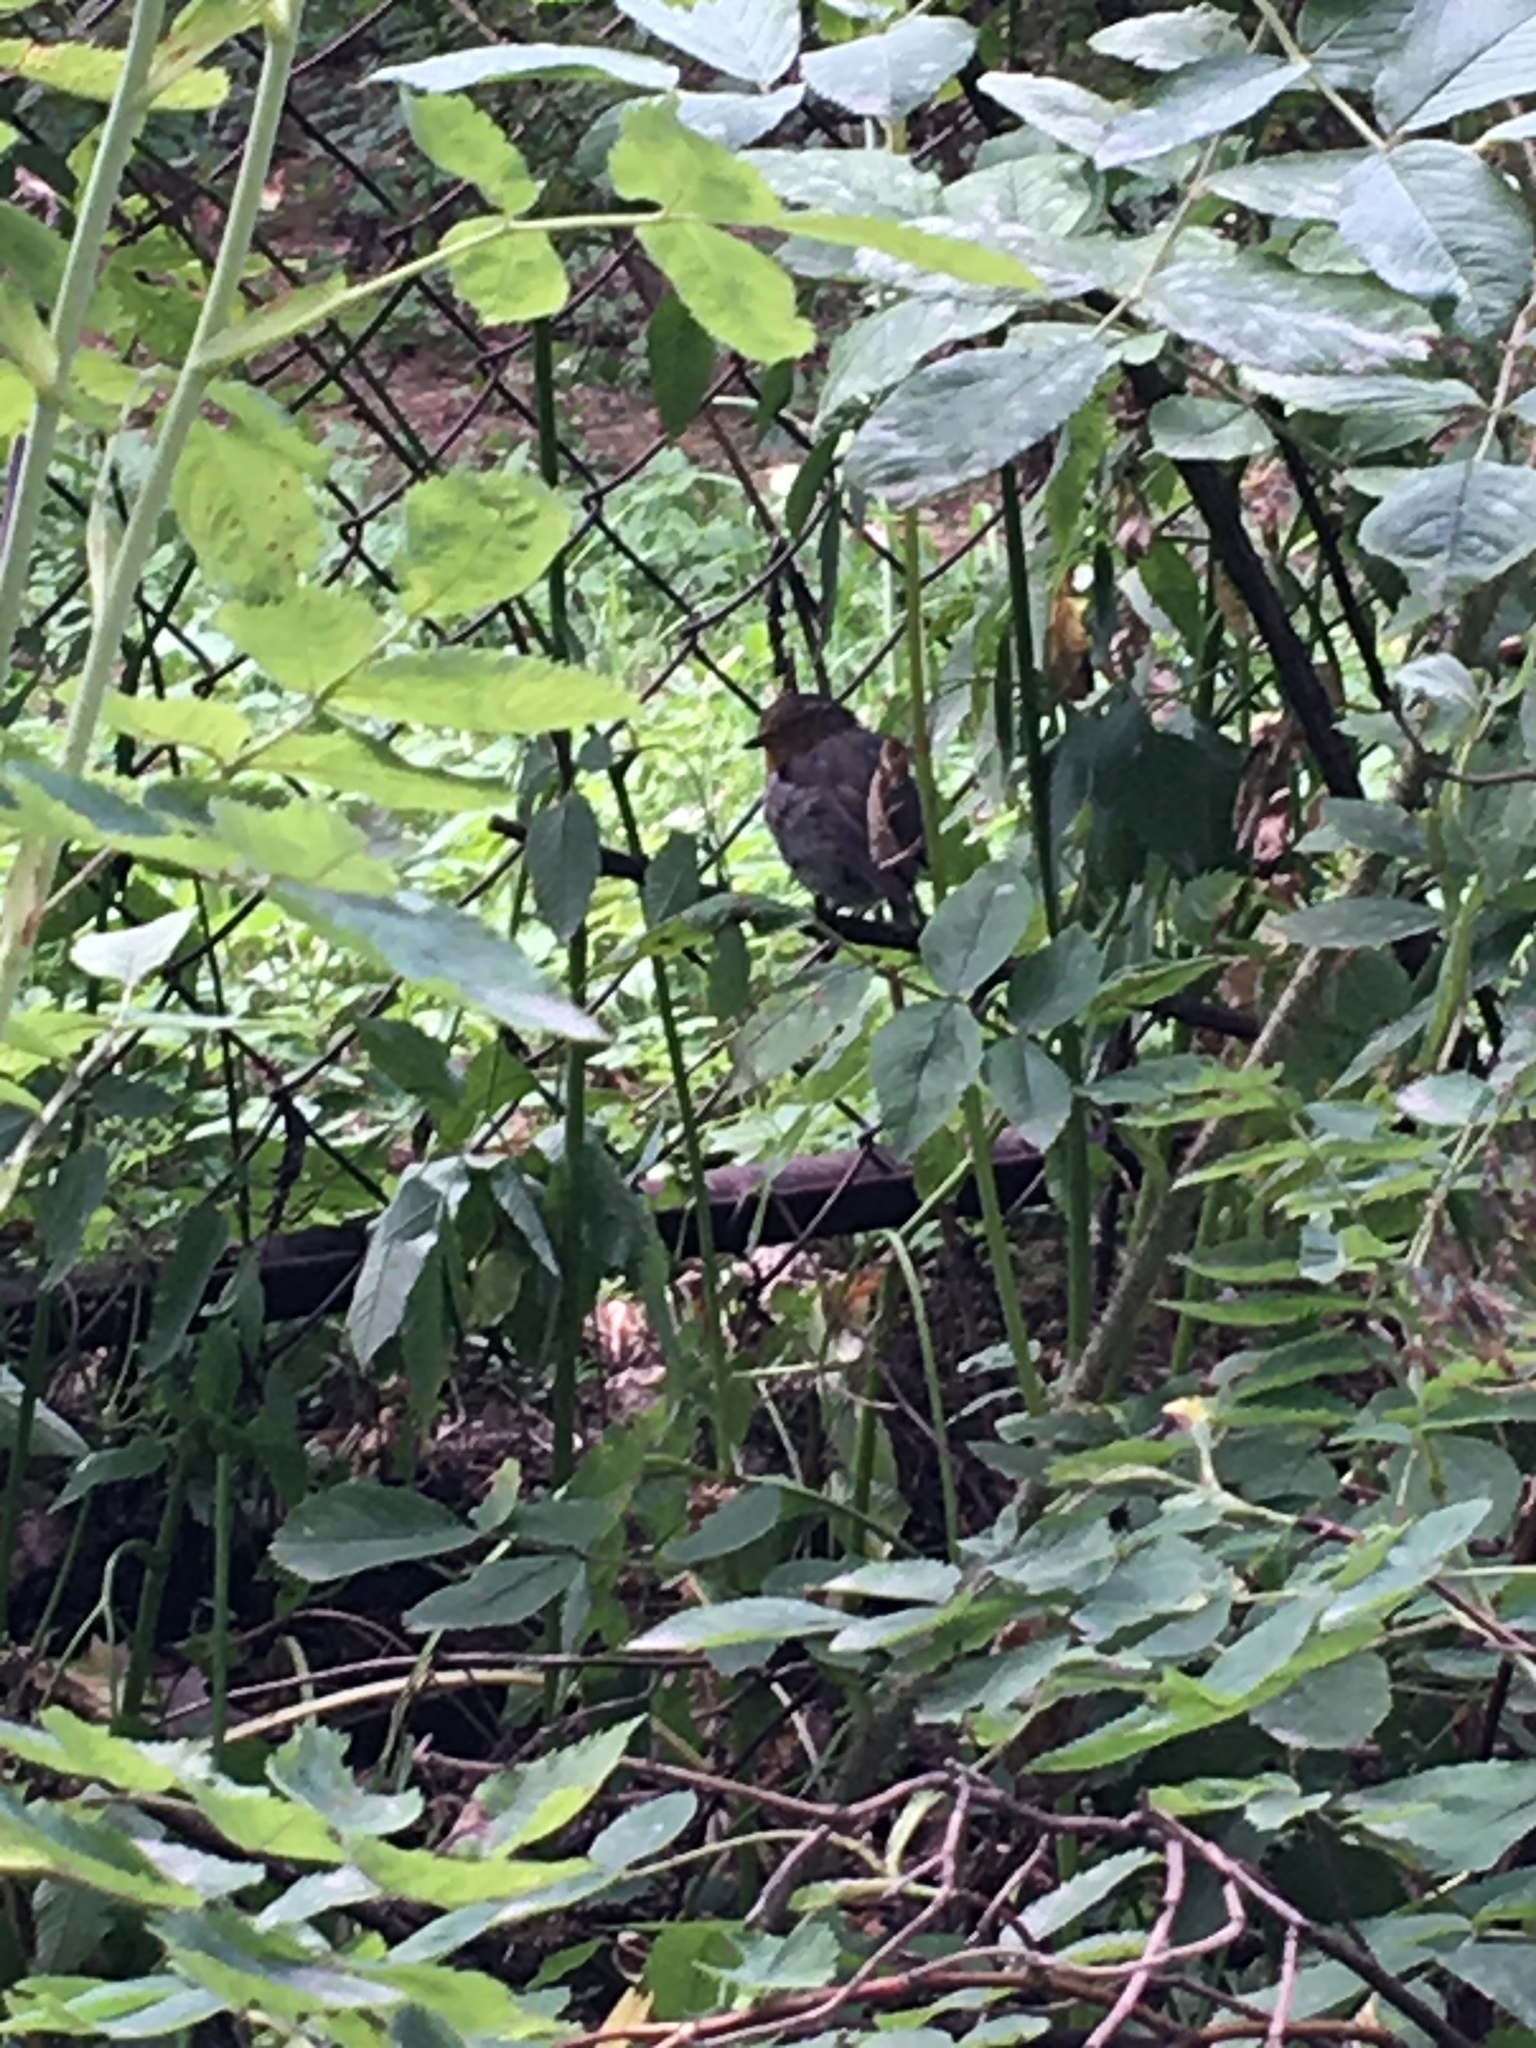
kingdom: Animalia
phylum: Chordata
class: Aves
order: Passeriformes
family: Muscicapidae
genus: Erithacus
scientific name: Erithacus rubecula
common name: European robin
